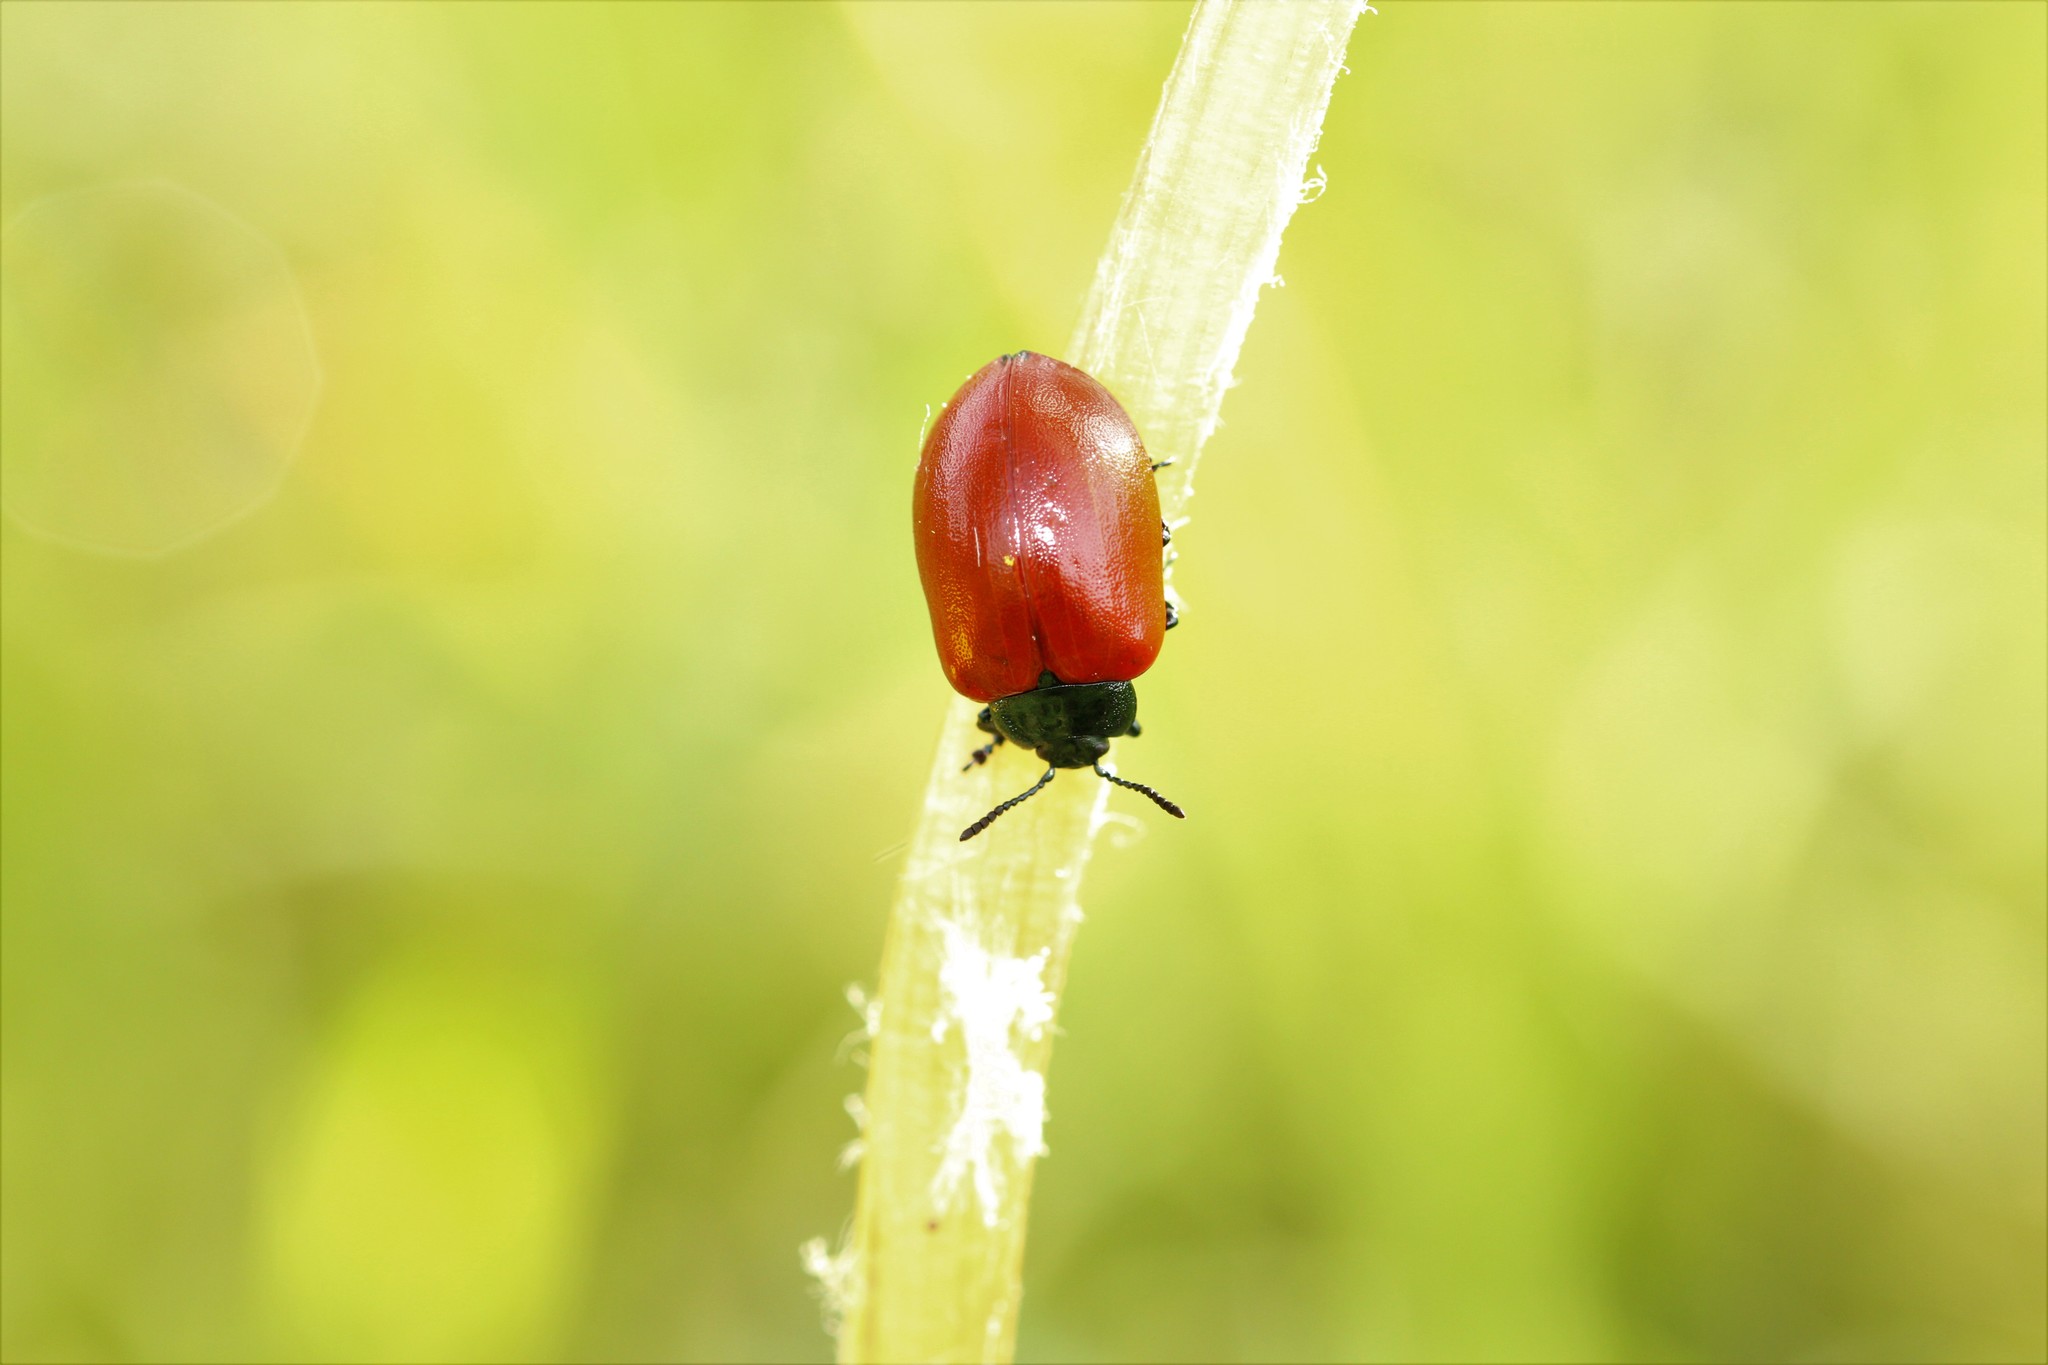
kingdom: Animalia
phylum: Arthropoda
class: Insecta
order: Coleoptera
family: Chrysomelidae
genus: Chrysomela
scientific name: Chrysomela populi
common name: Red poplar leaf beetle
